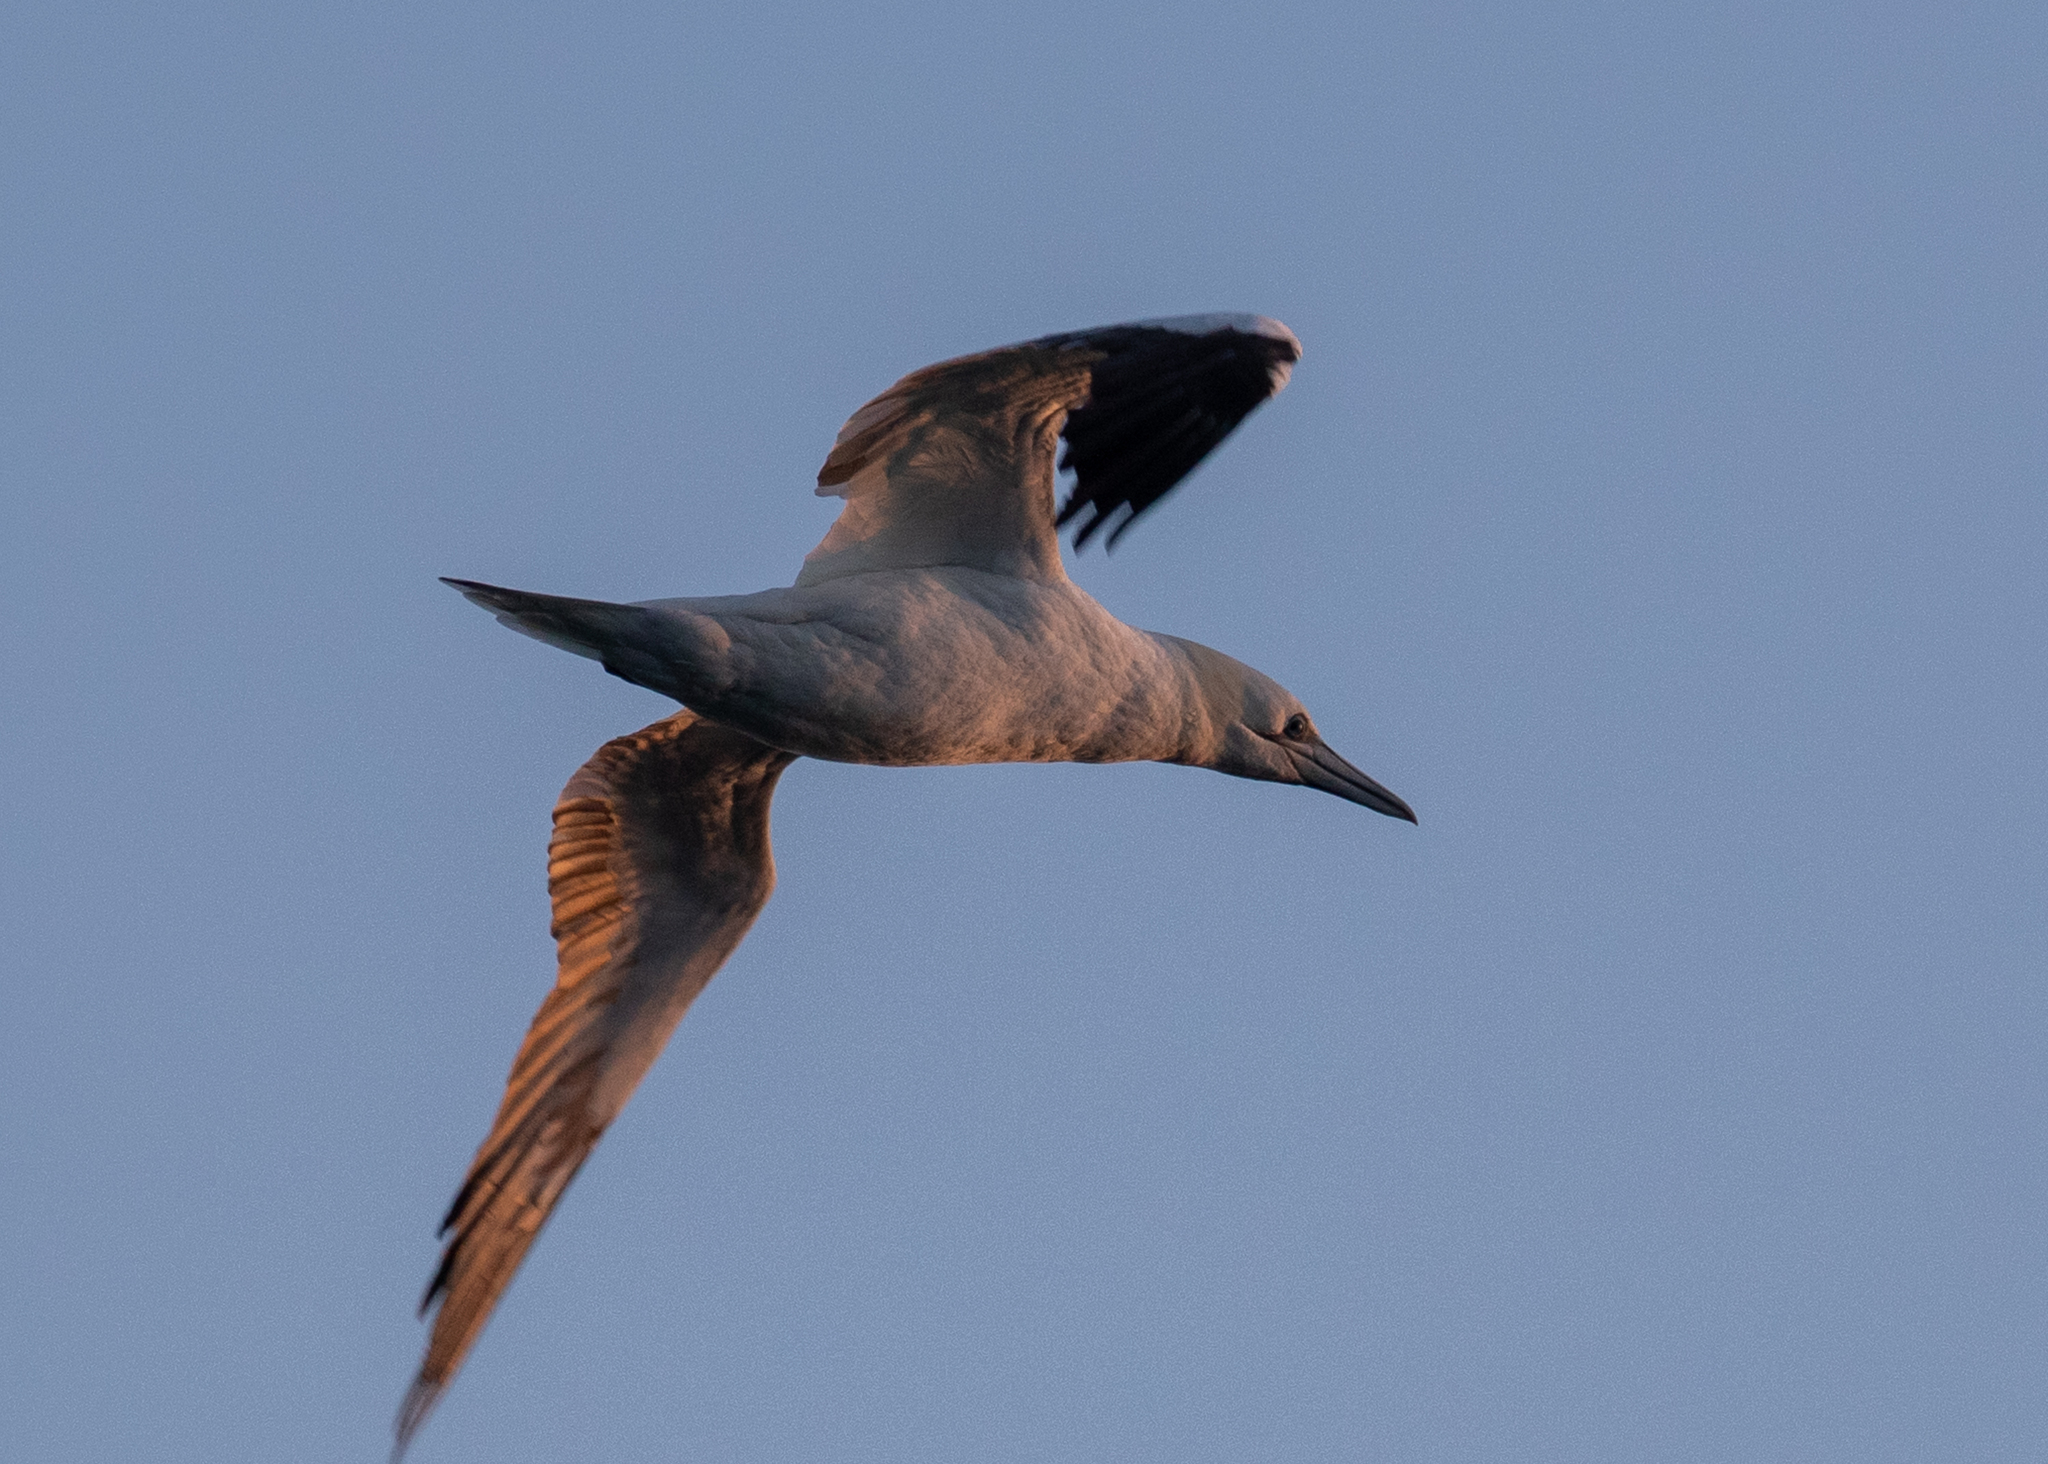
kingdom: Animalia
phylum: Chordata
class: Aves
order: Suliformes
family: Sulidae
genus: Morus
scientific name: Morus bassanus
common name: Northern gannet
